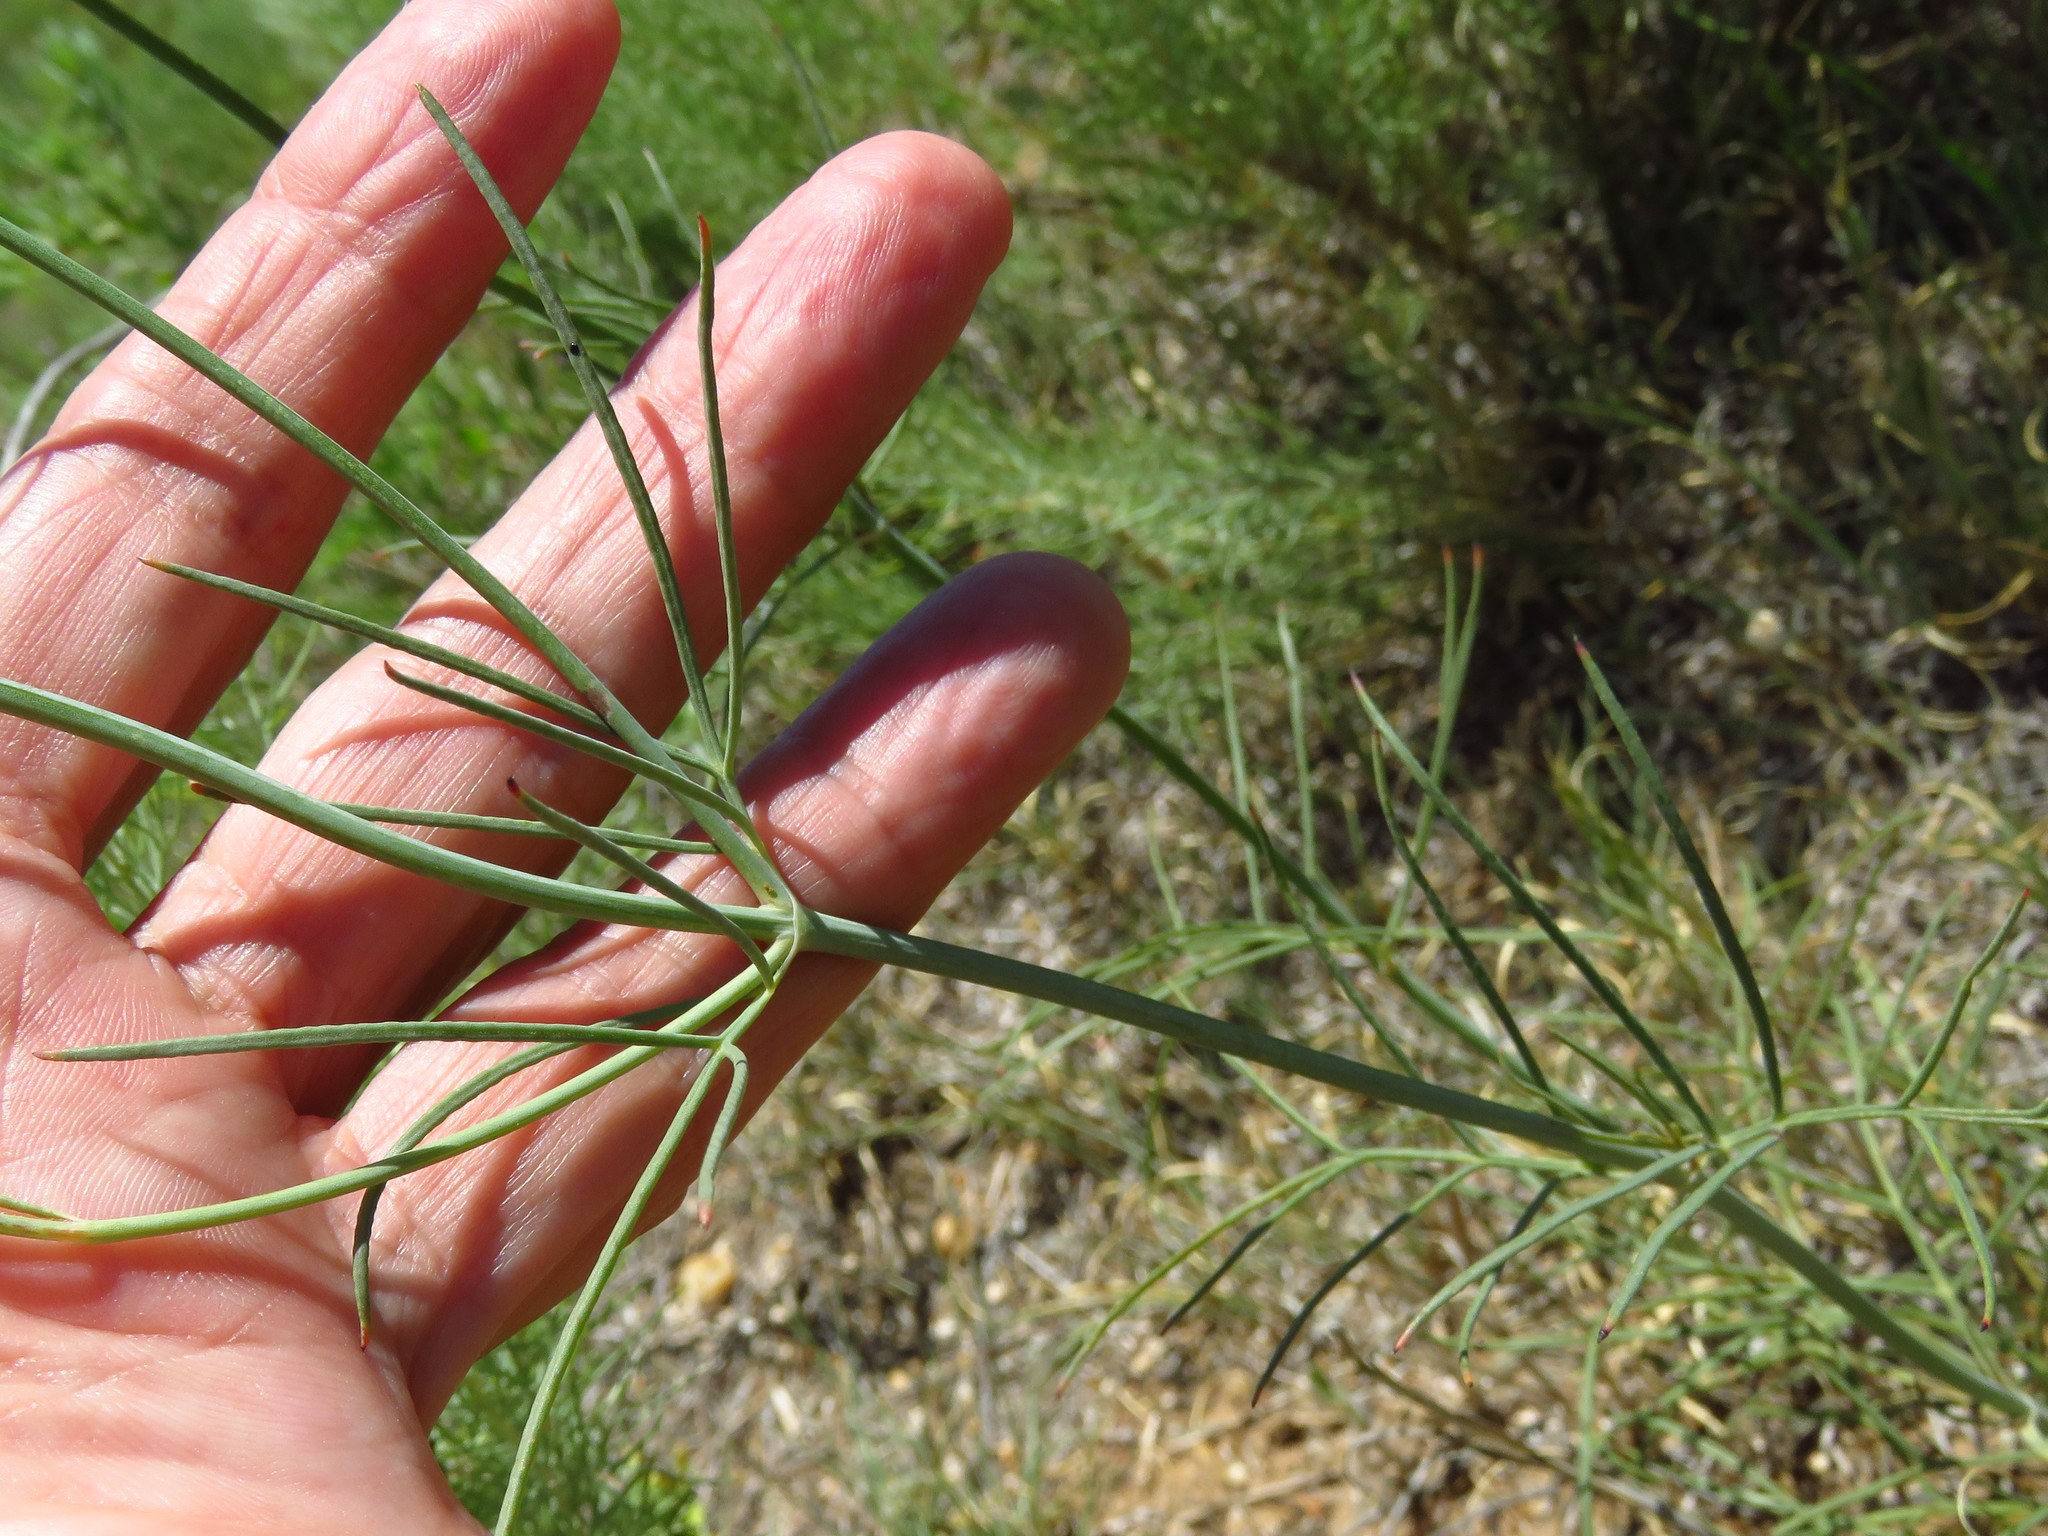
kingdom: Plantae
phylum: Tracheophyta
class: Magnoliopsida
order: Asterales
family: Asteraceae
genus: Thelesperma
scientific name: Thelesperma megapotamicum
